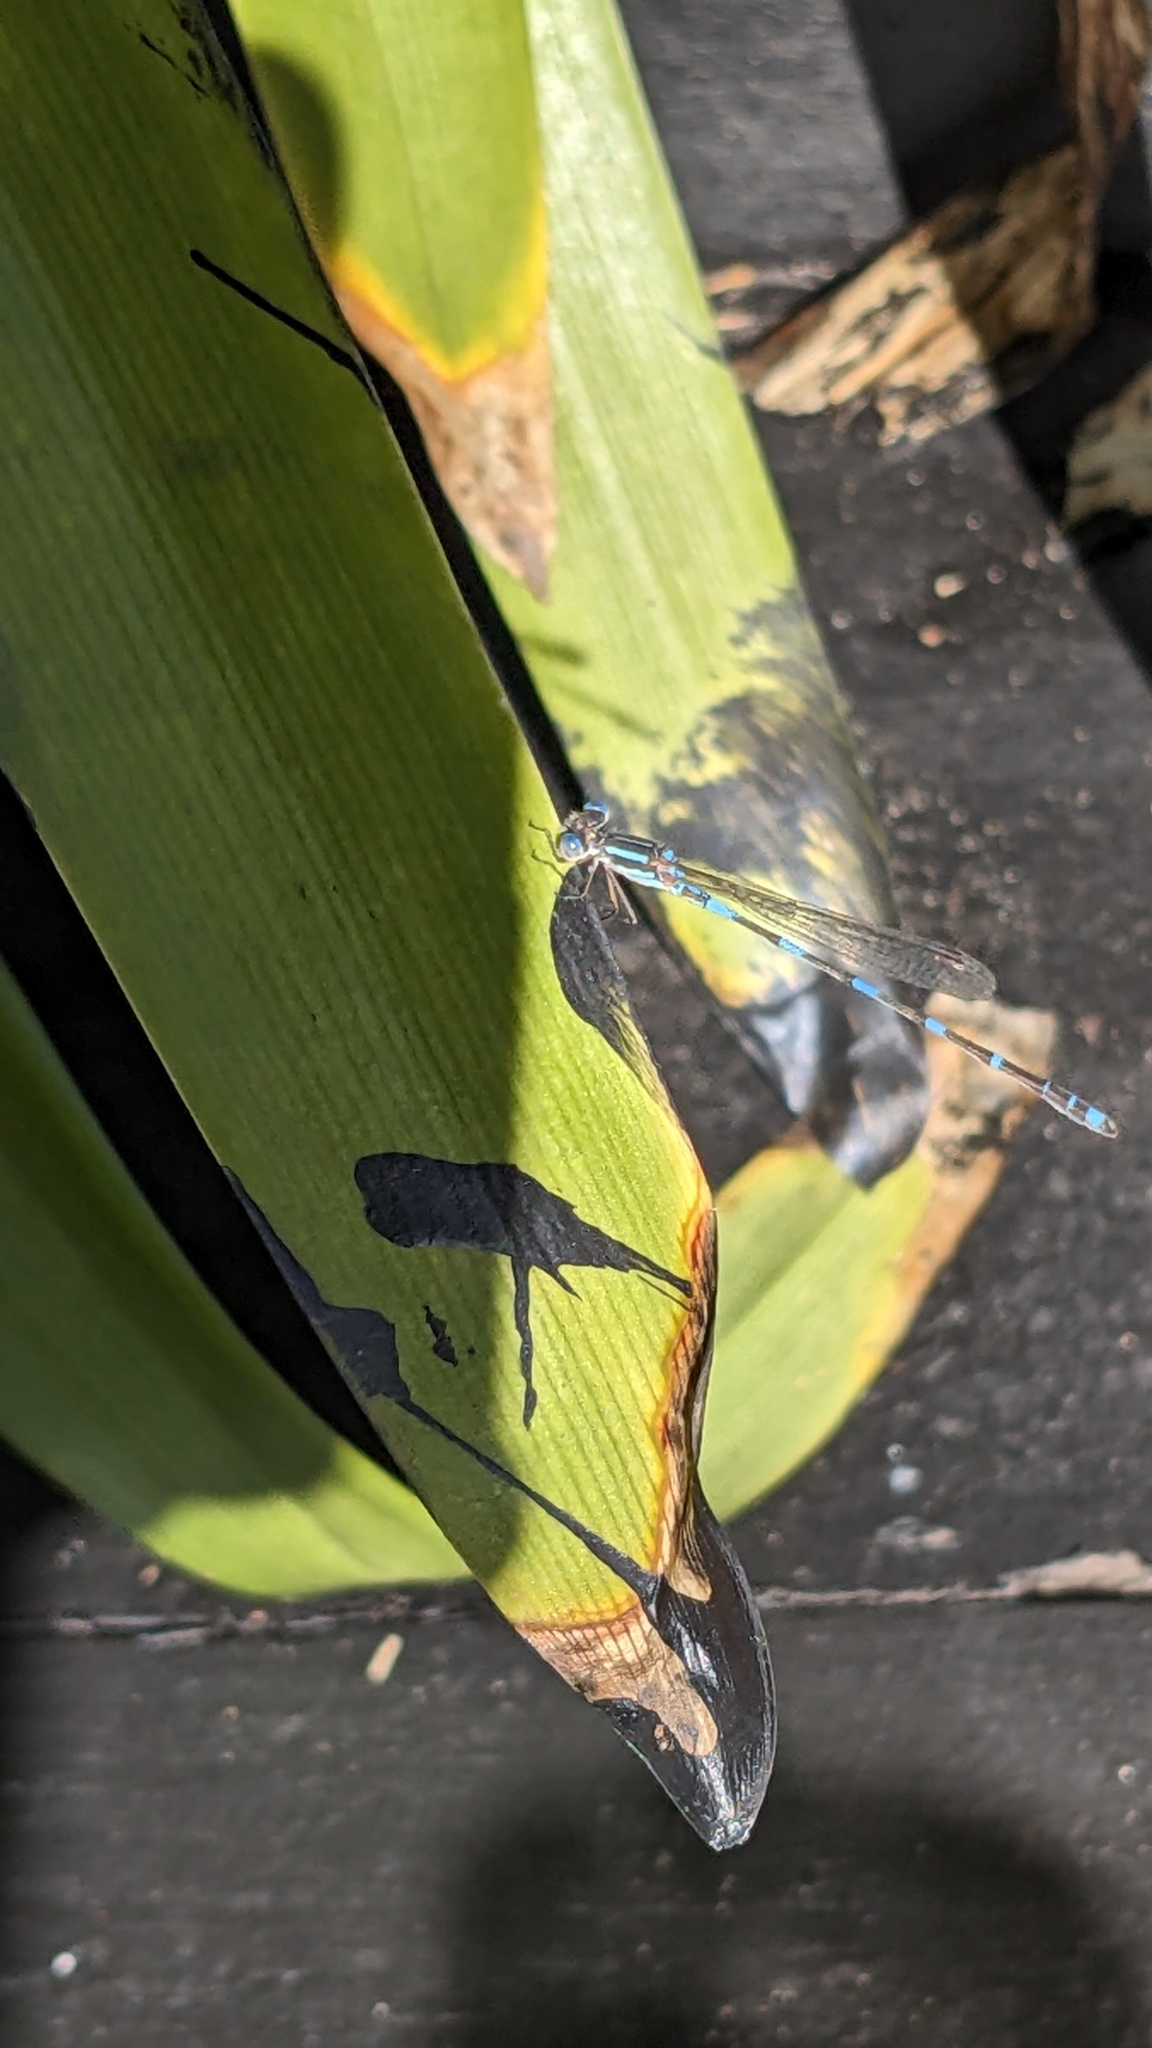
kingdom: Animalia
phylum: Arthropoda
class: Insecta
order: Odonata
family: Lestidae
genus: Austrolestes
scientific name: Austrolestes leda
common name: Wandering ringtail
